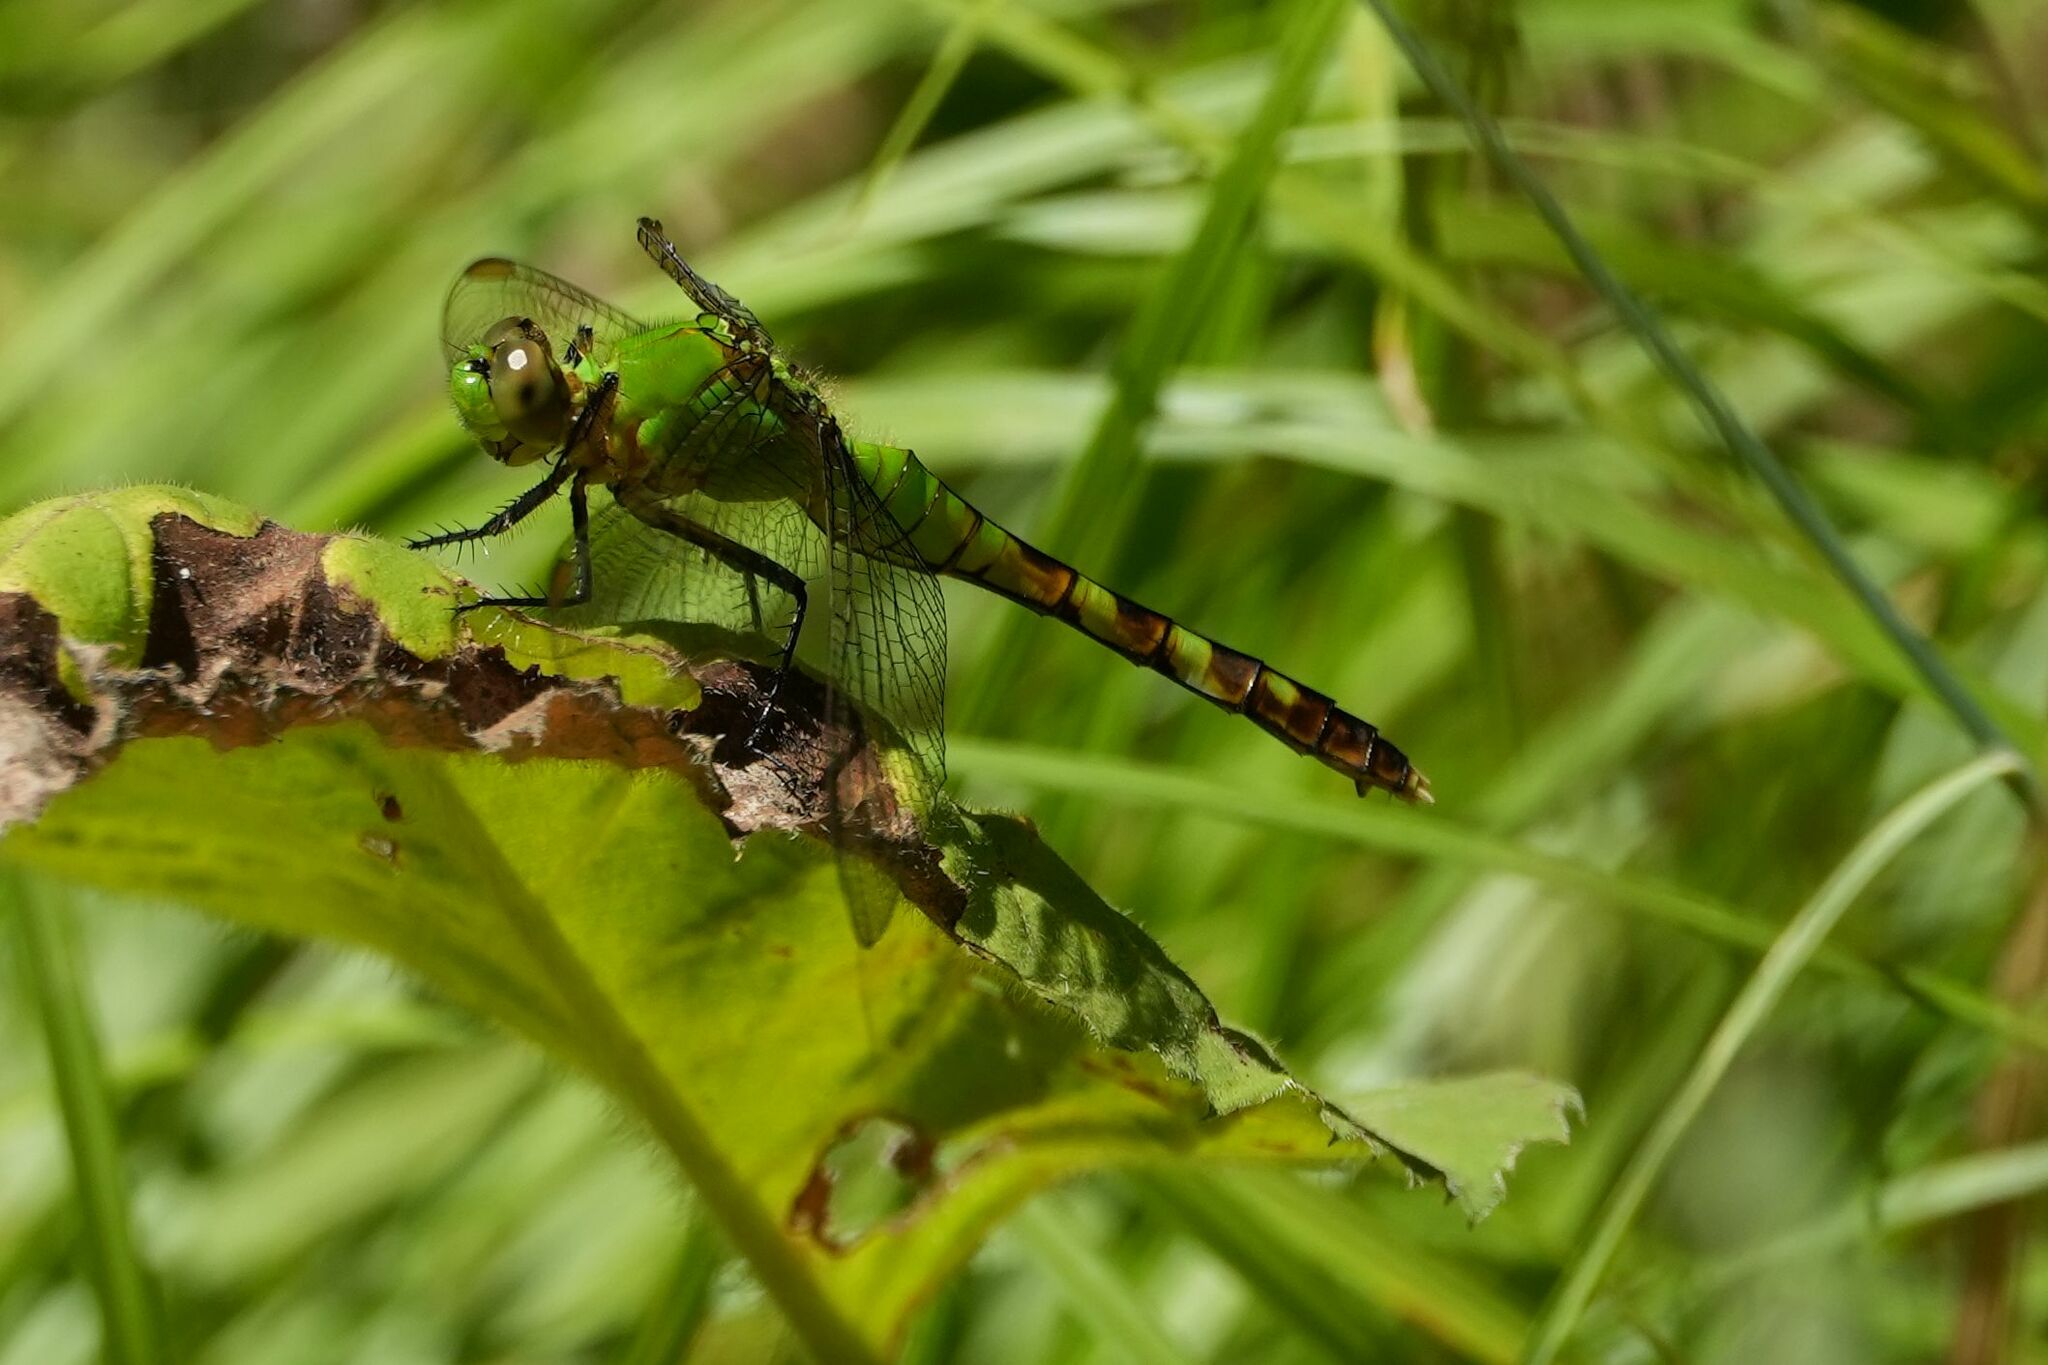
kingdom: Animalia
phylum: Arthropoda
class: Insecta
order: Odonata
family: Libellulidae
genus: Erythemis
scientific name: Erythemis simplicicollis
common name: Eastern pondhawk
